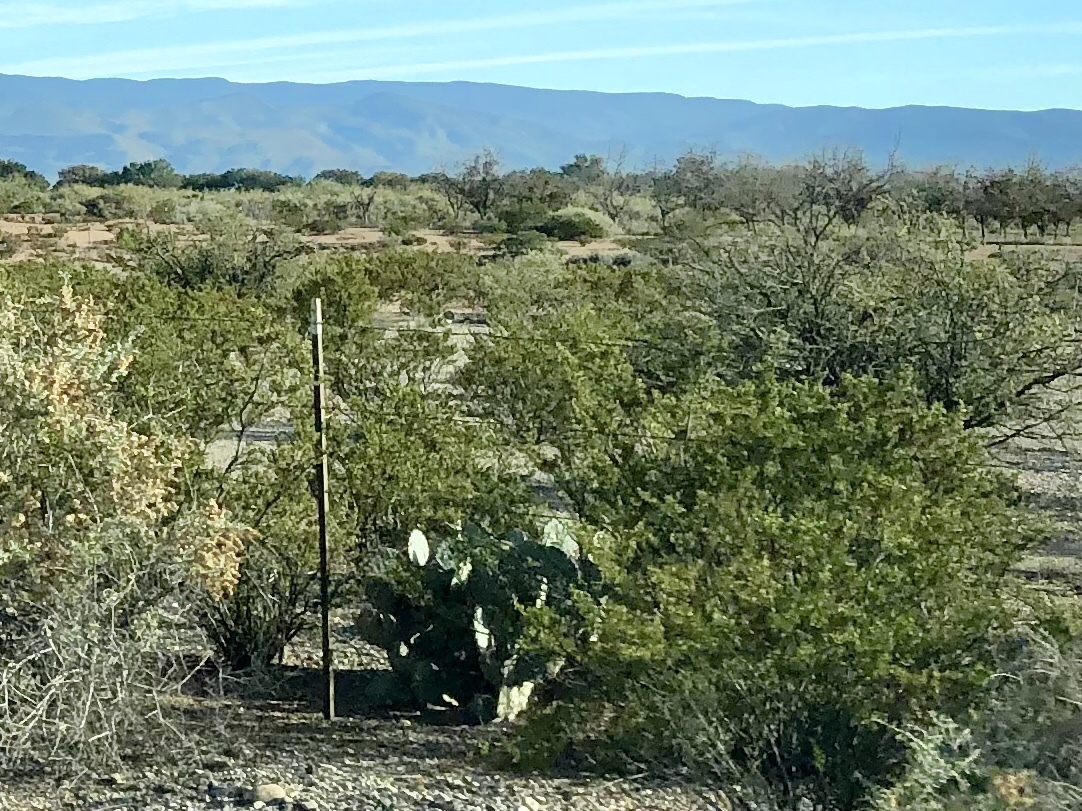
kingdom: Plantae
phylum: Tracheophyta
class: Magnoliopsida
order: Zygophyllales
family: Zygophyllaceae
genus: Larrea
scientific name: Larrea tridentata
